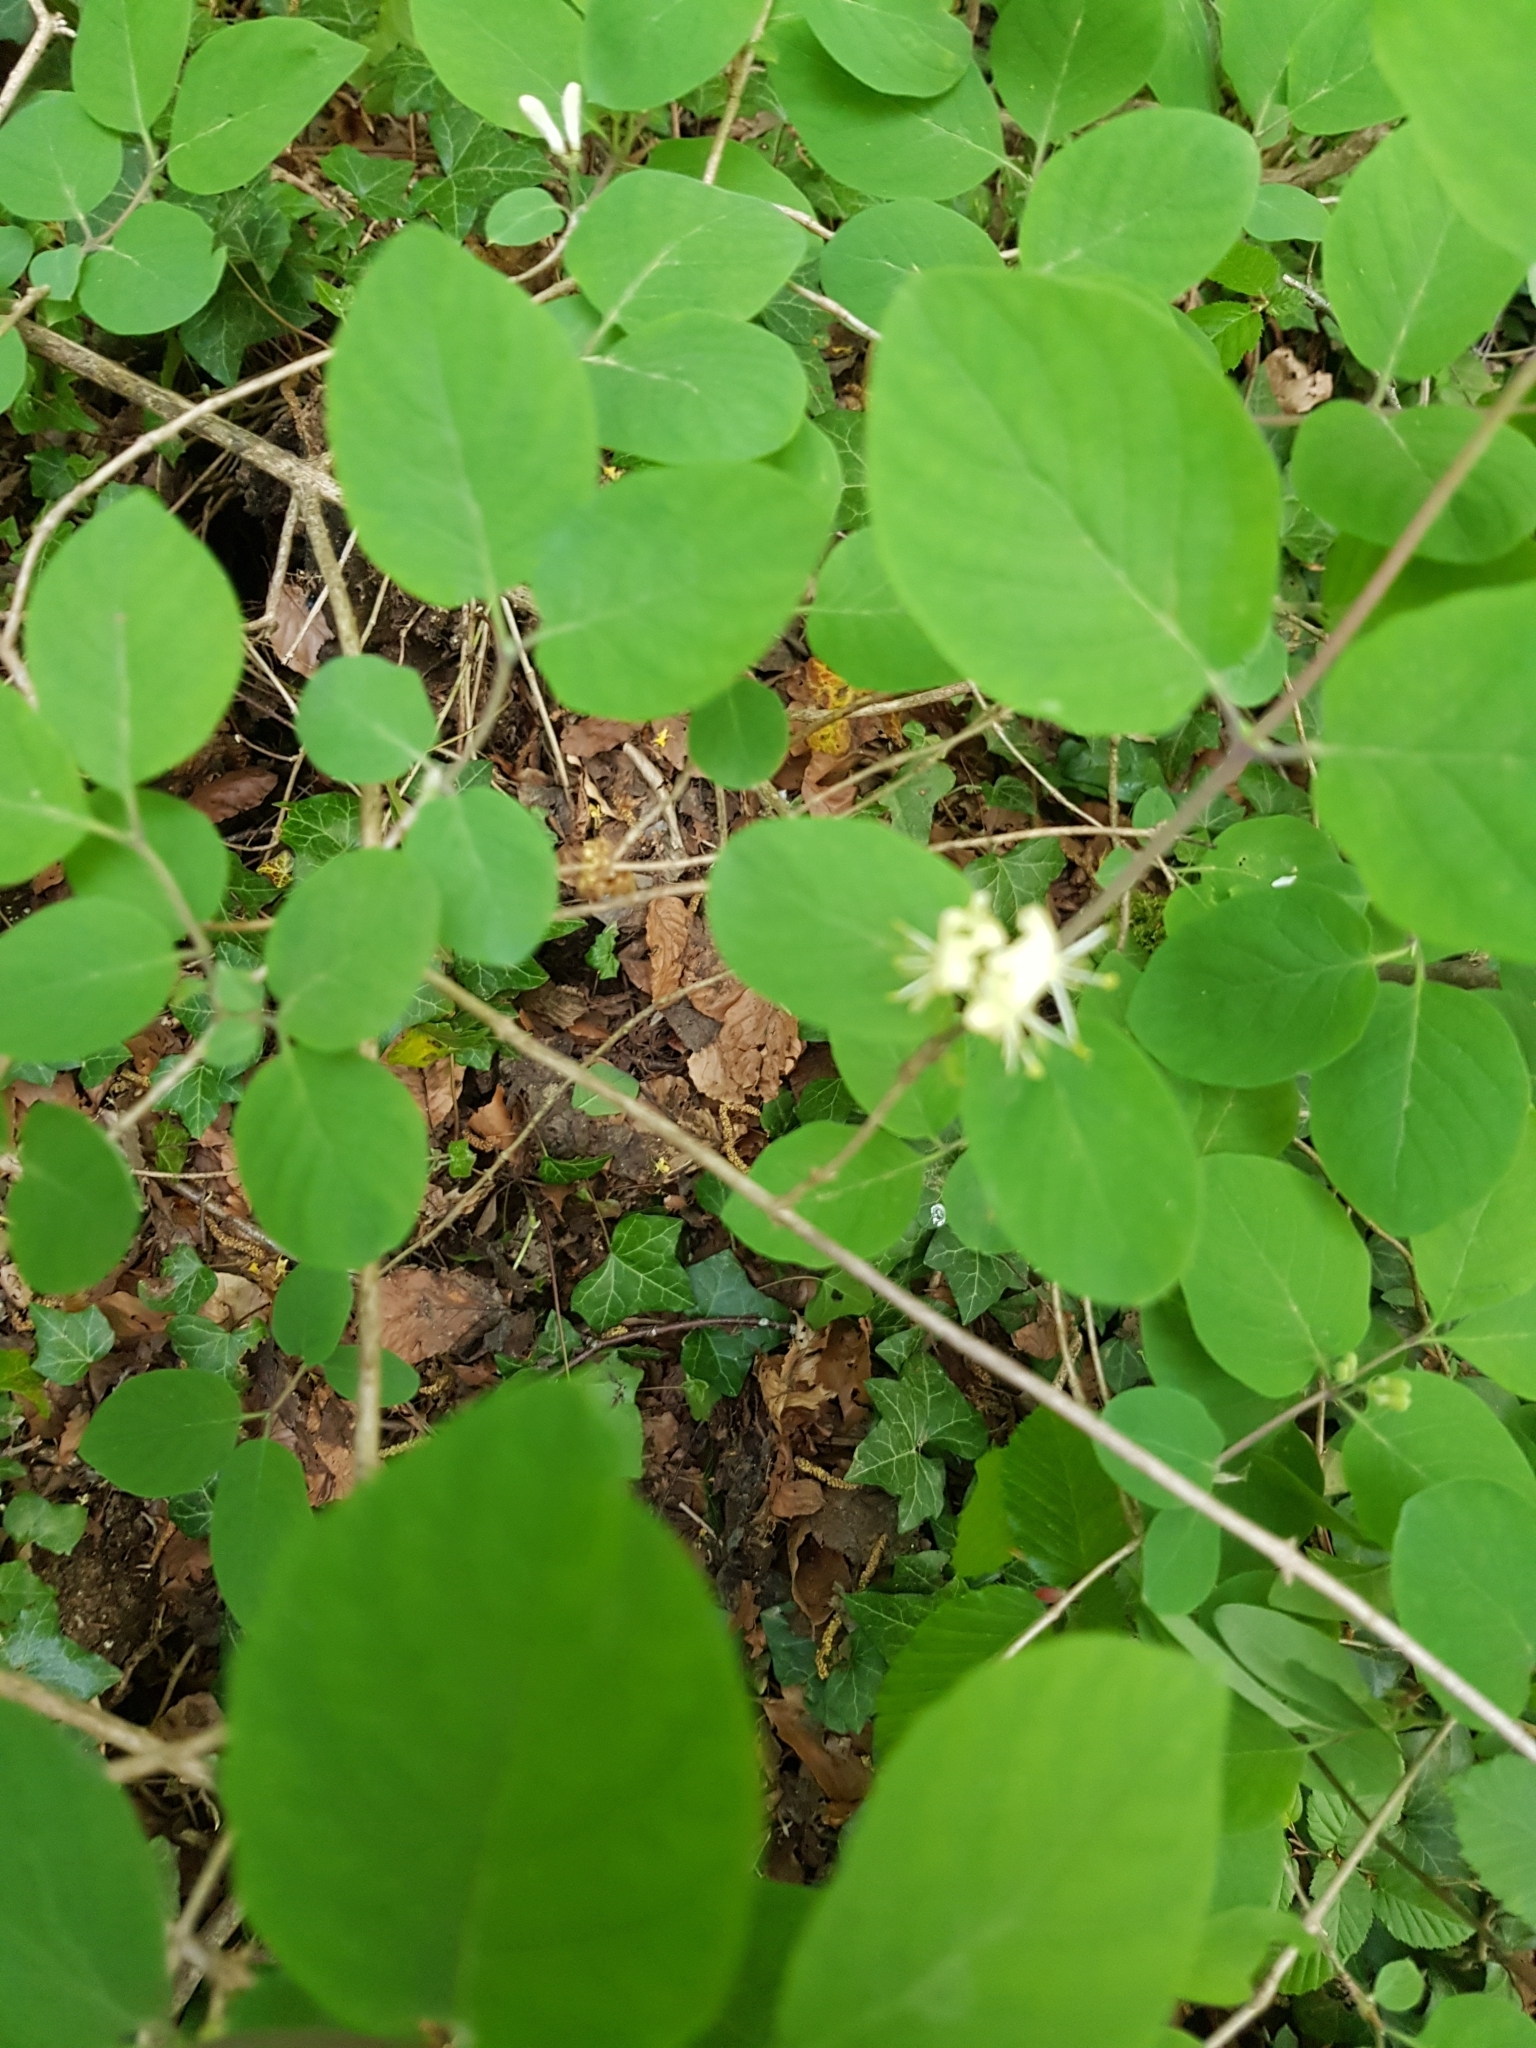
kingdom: Plantae
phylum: Tracheophyta
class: Magnoliopsida
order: Dipsacales
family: Caprifoliaceae
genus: Lonicera
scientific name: Lonicera xylosteum
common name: Fly honeysuckle
